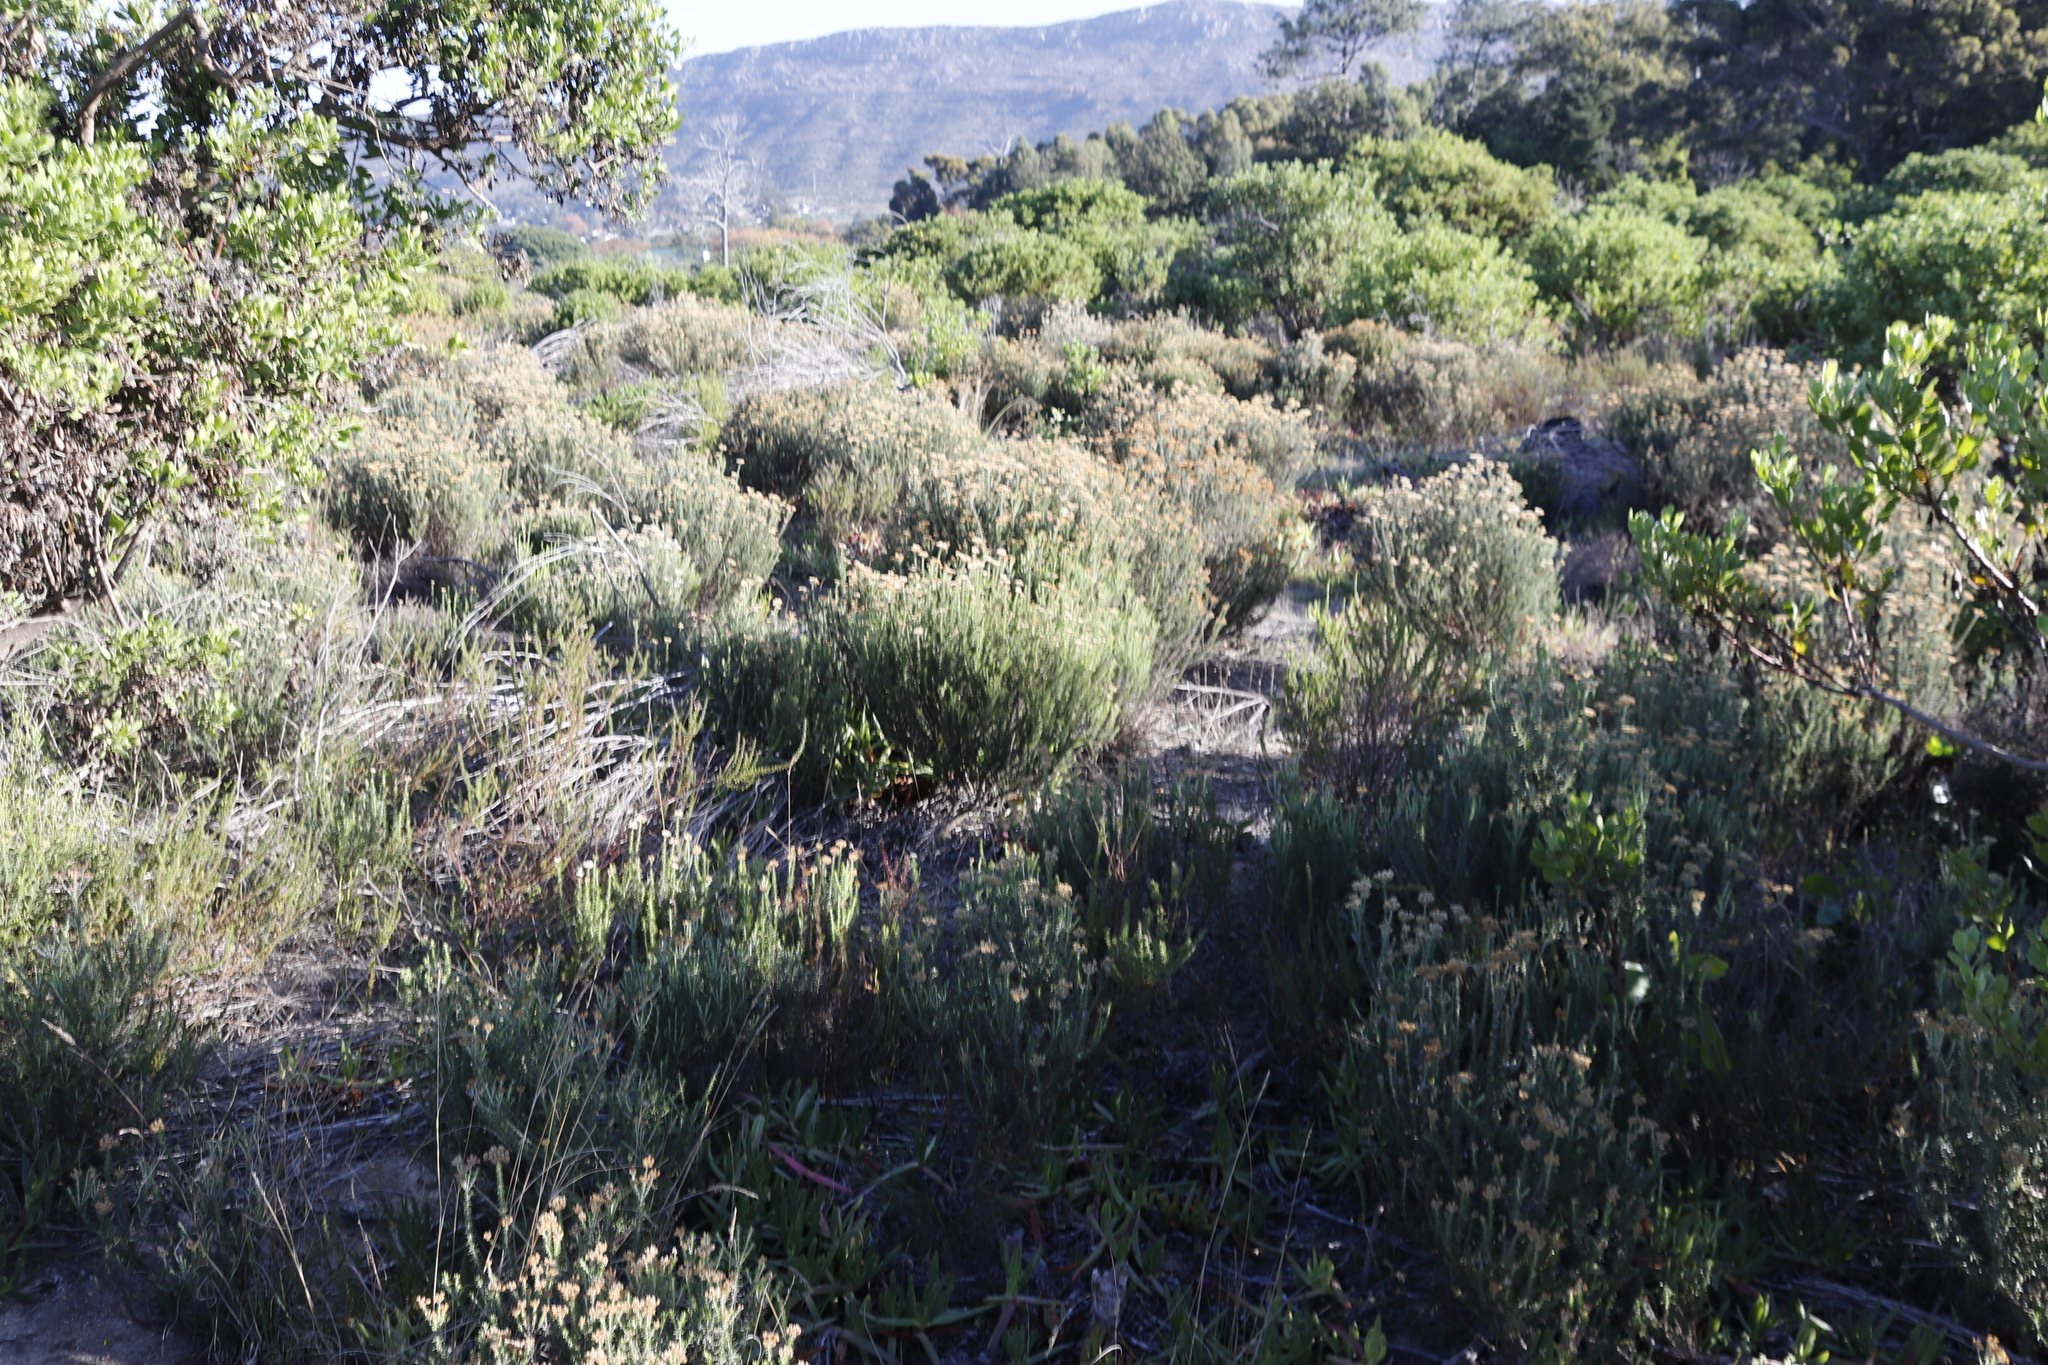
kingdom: Plantae
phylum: Tracheophyta
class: Magnoliopsida
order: Asterales
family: Asteraceae
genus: Metalasia
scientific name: Metalasia densa
